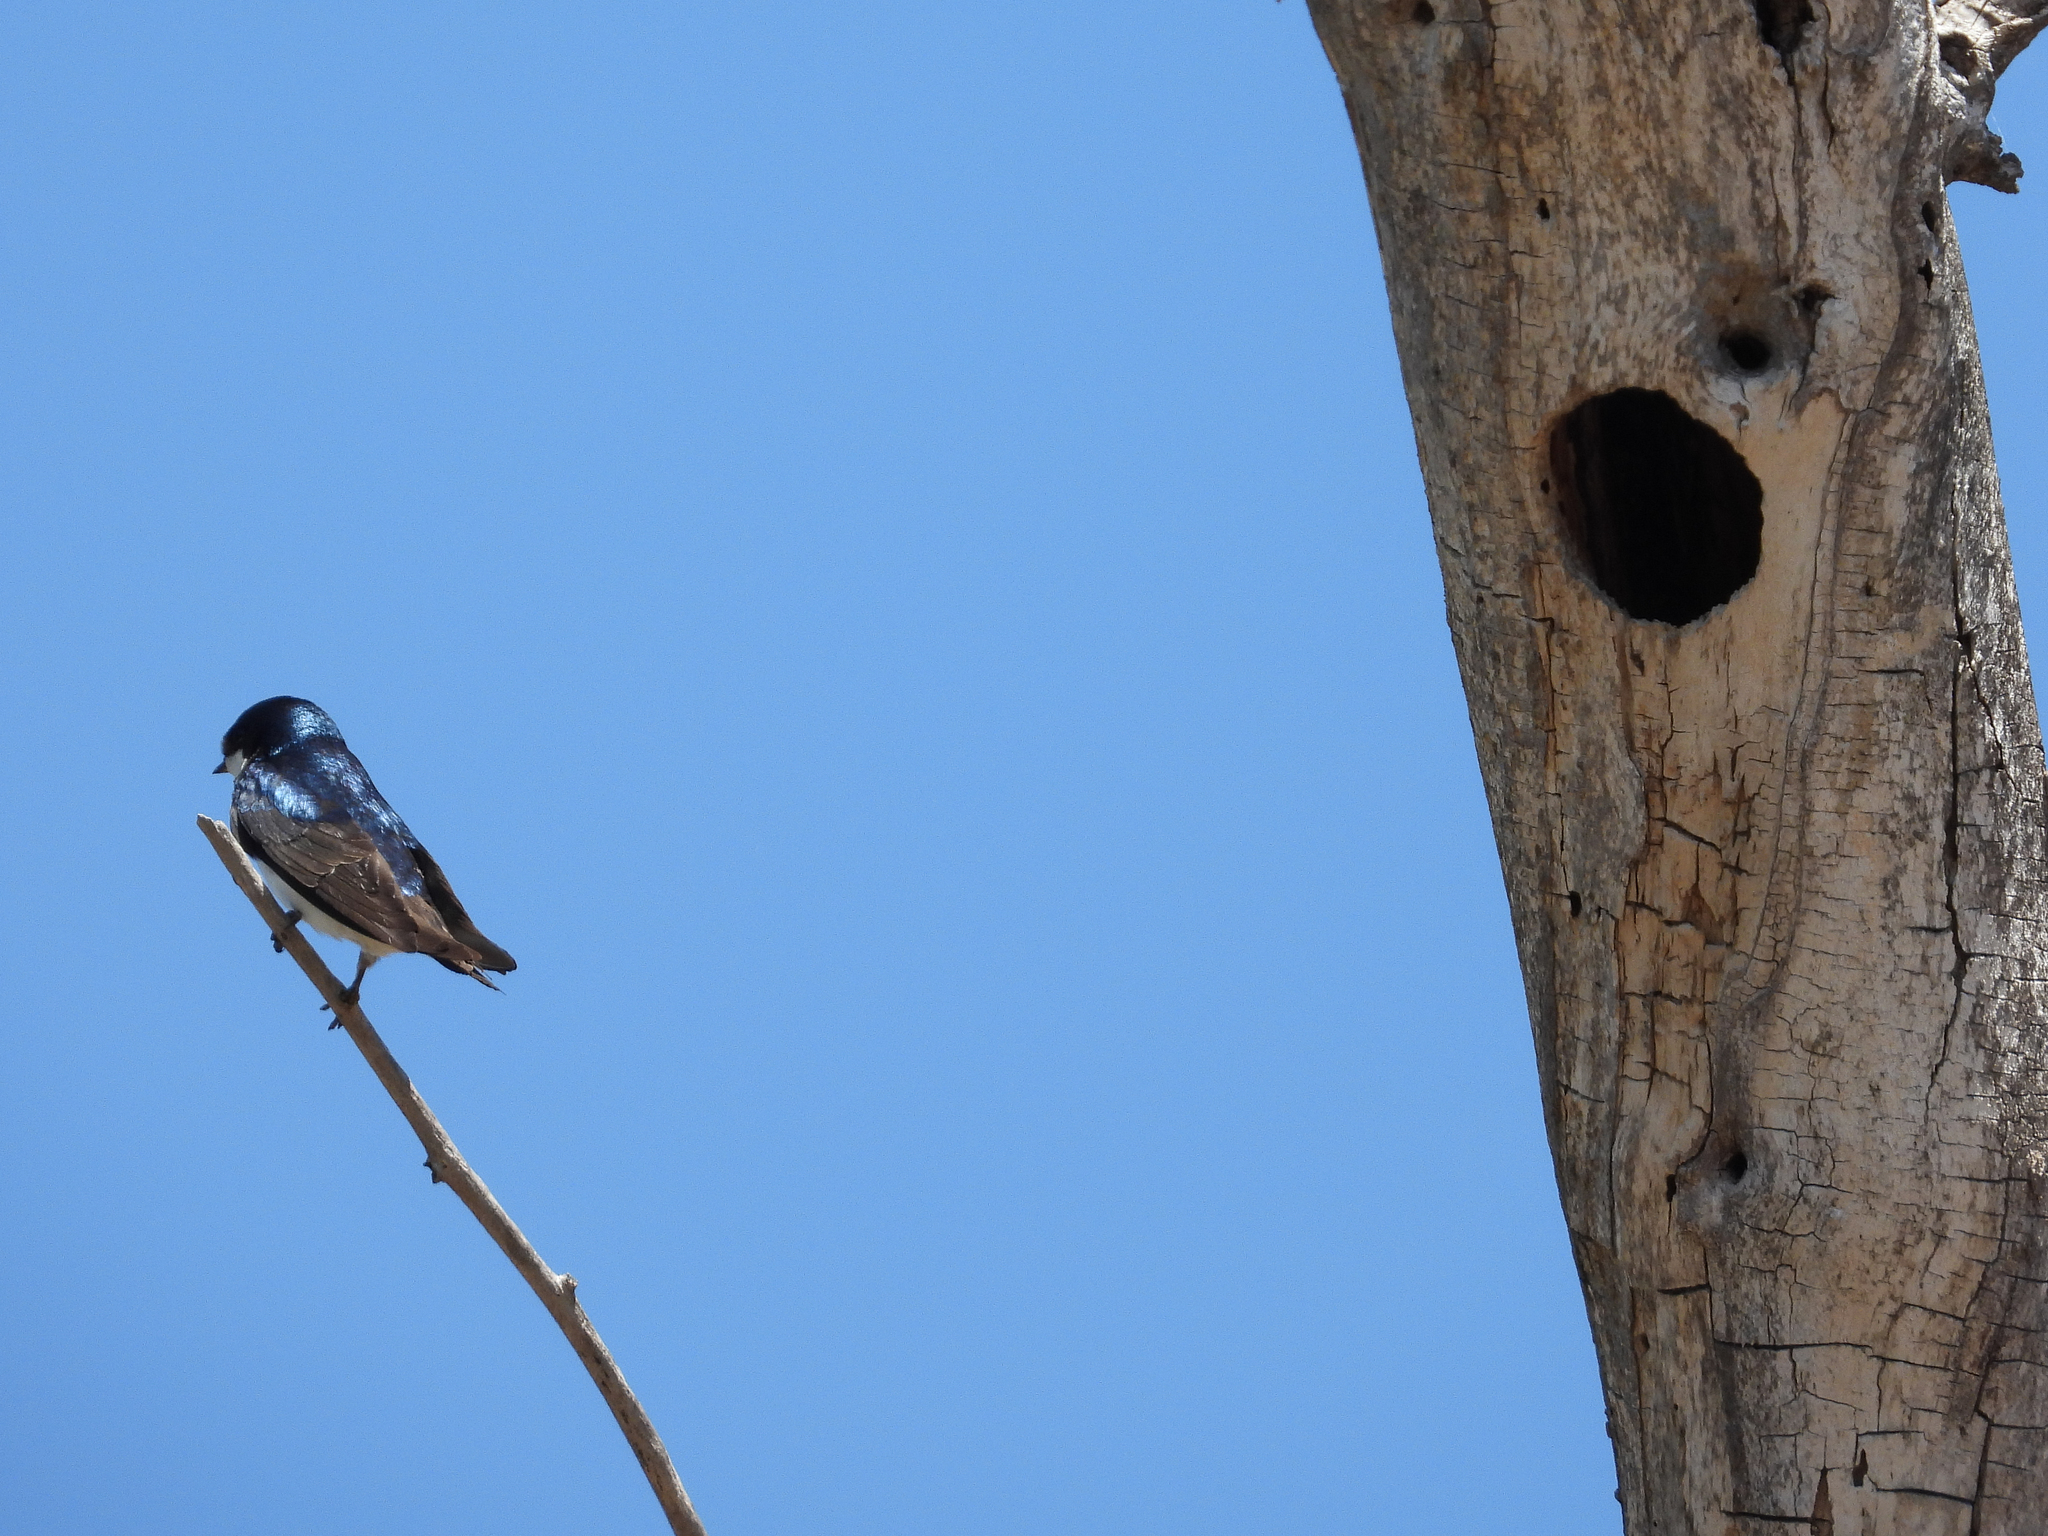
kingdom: Animalia
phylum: Chordata
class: Aves
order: Passeriformes
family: Hirundinidae
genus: Tachycineta
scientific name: Tachycineta bicolor
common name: Tree swallow
